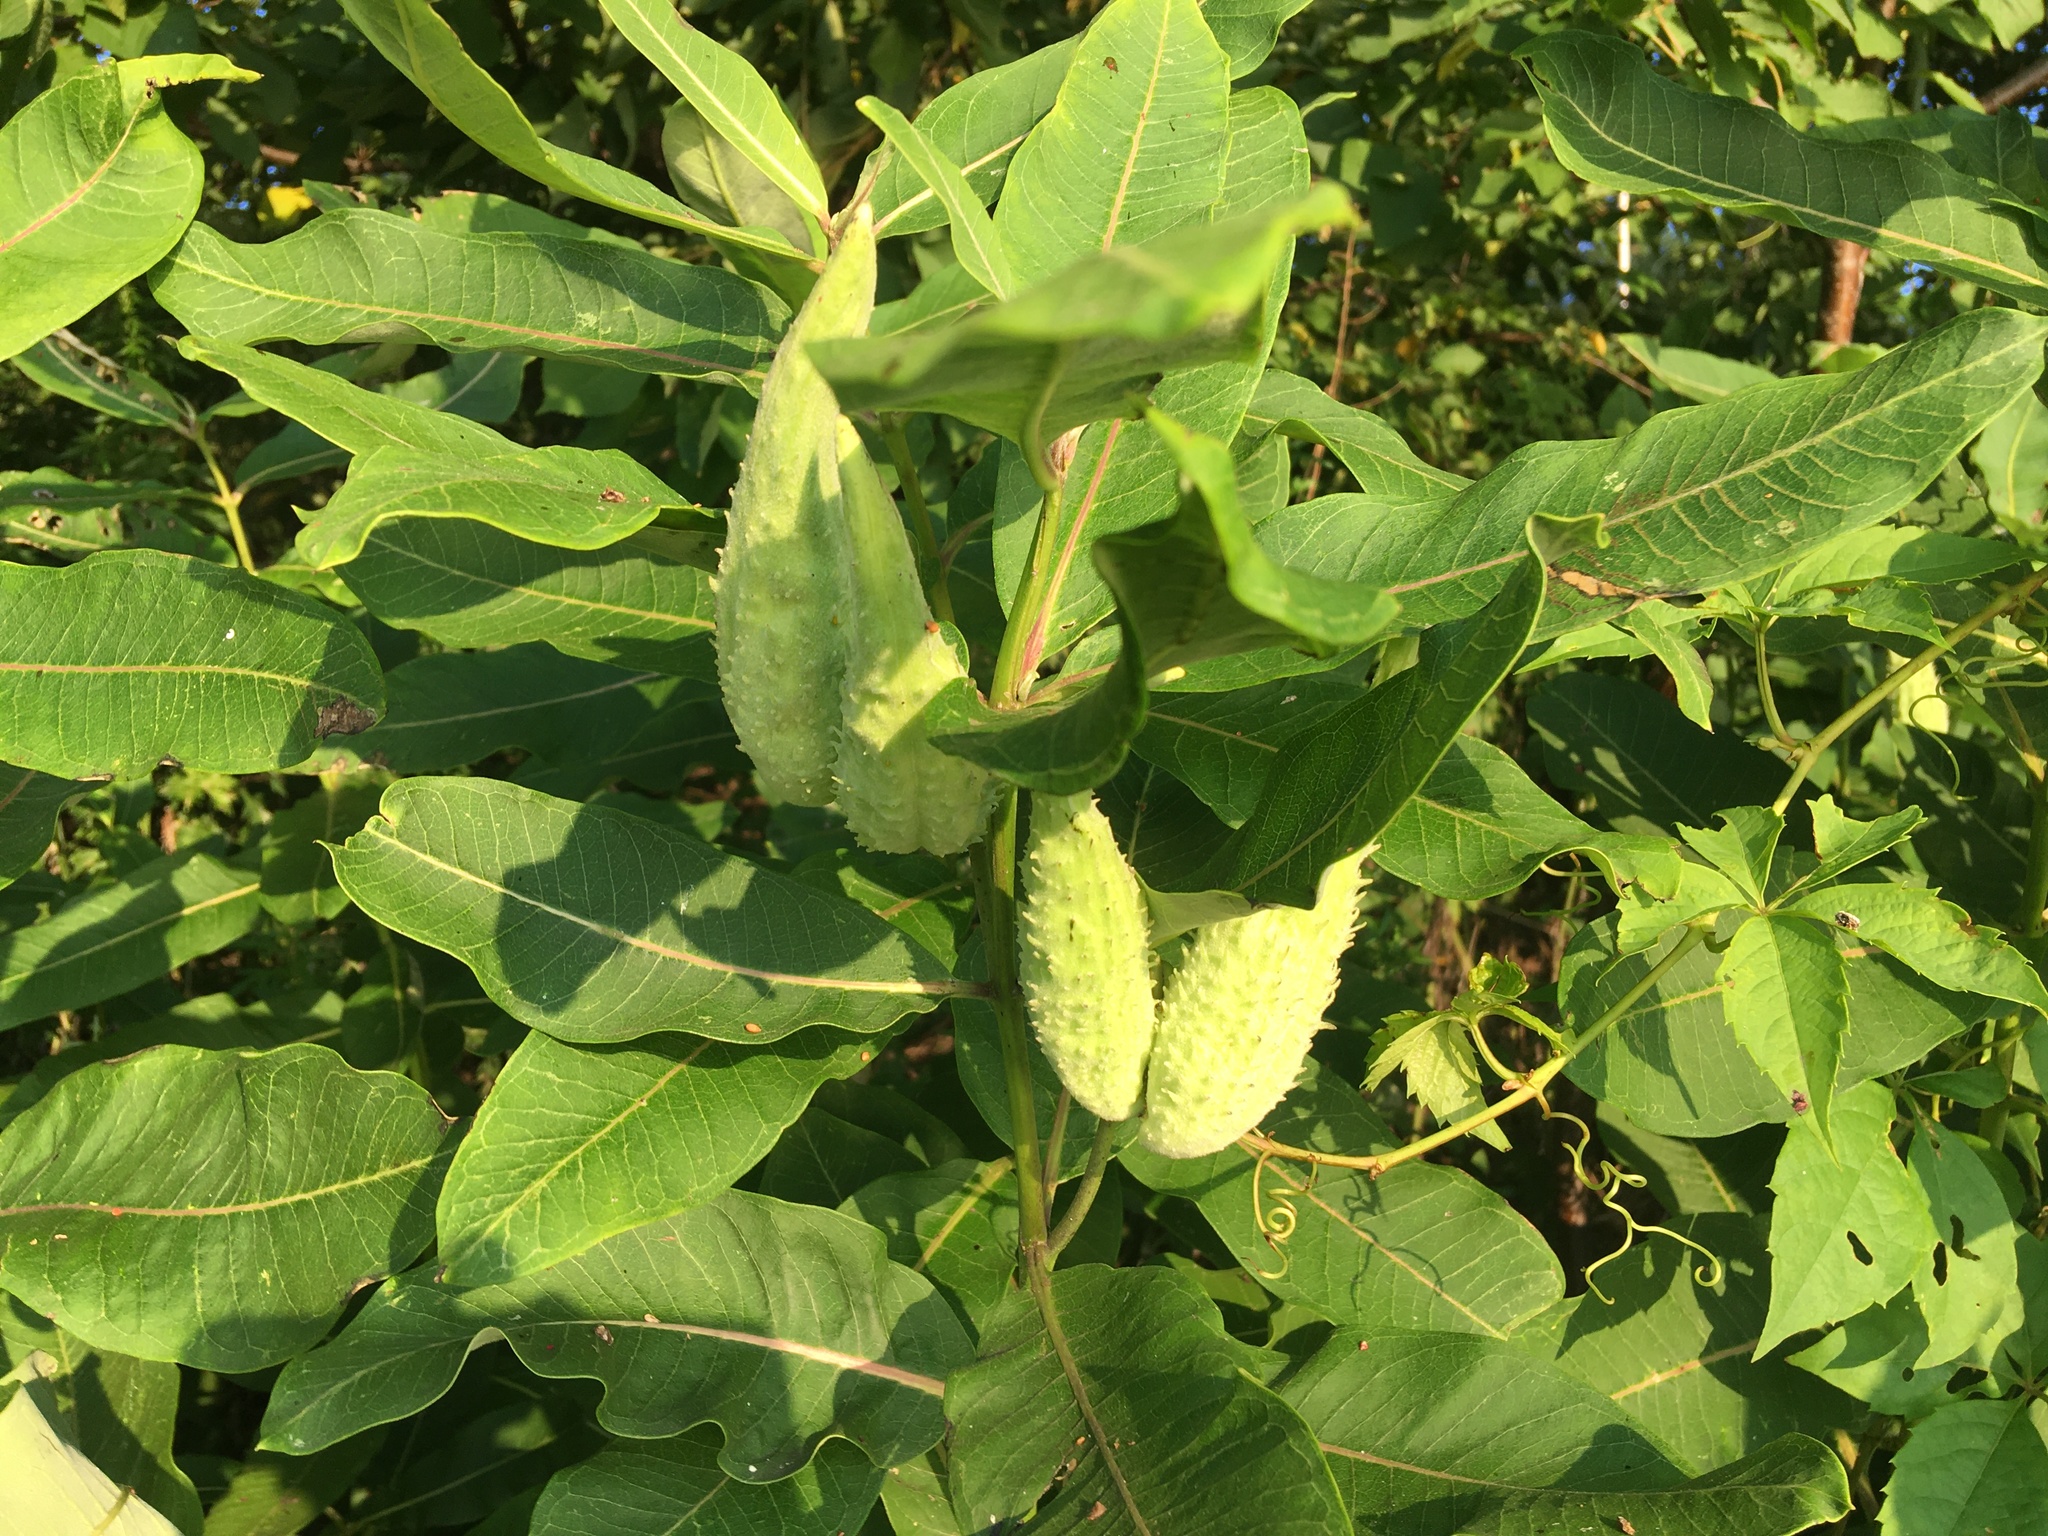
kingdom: Plantae
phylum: Tracheophyta
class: Magnoliopsida
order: Gentianales
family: Apocynaceae
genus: Asclepias
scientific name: Asclepias syriaca
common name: Common milkweed
